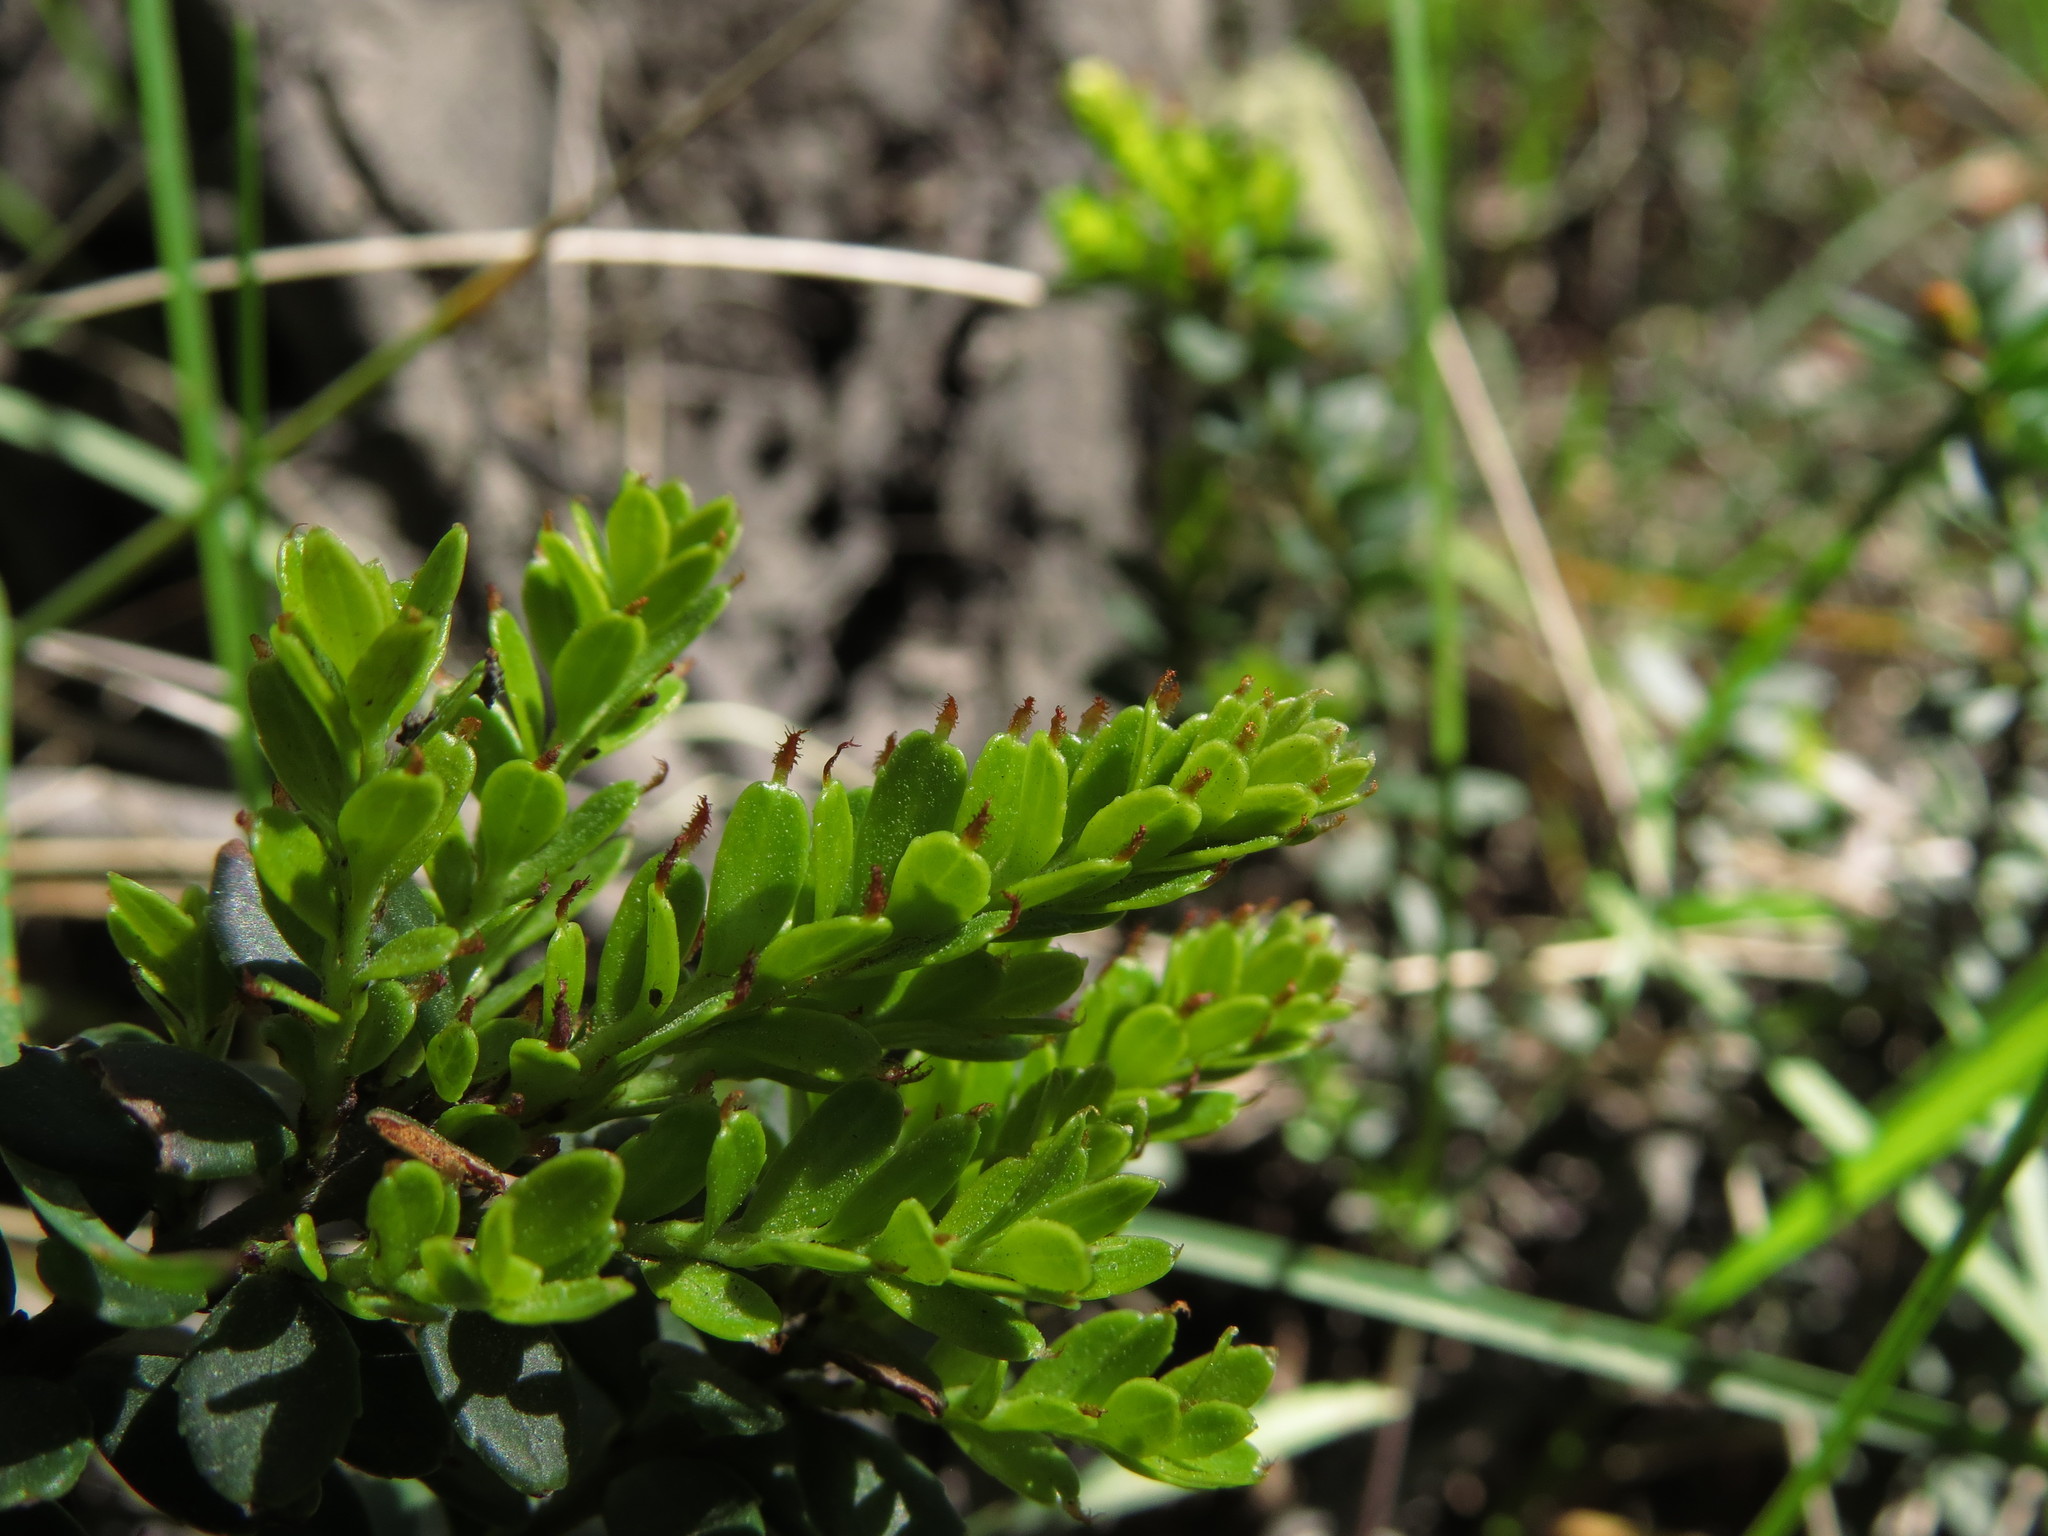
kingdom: Plantae
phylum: Tracheophyta
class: Magnoliopsida
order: Celastrales
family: Celastraceae
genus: Maytenus
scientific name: Maytenus disticha
